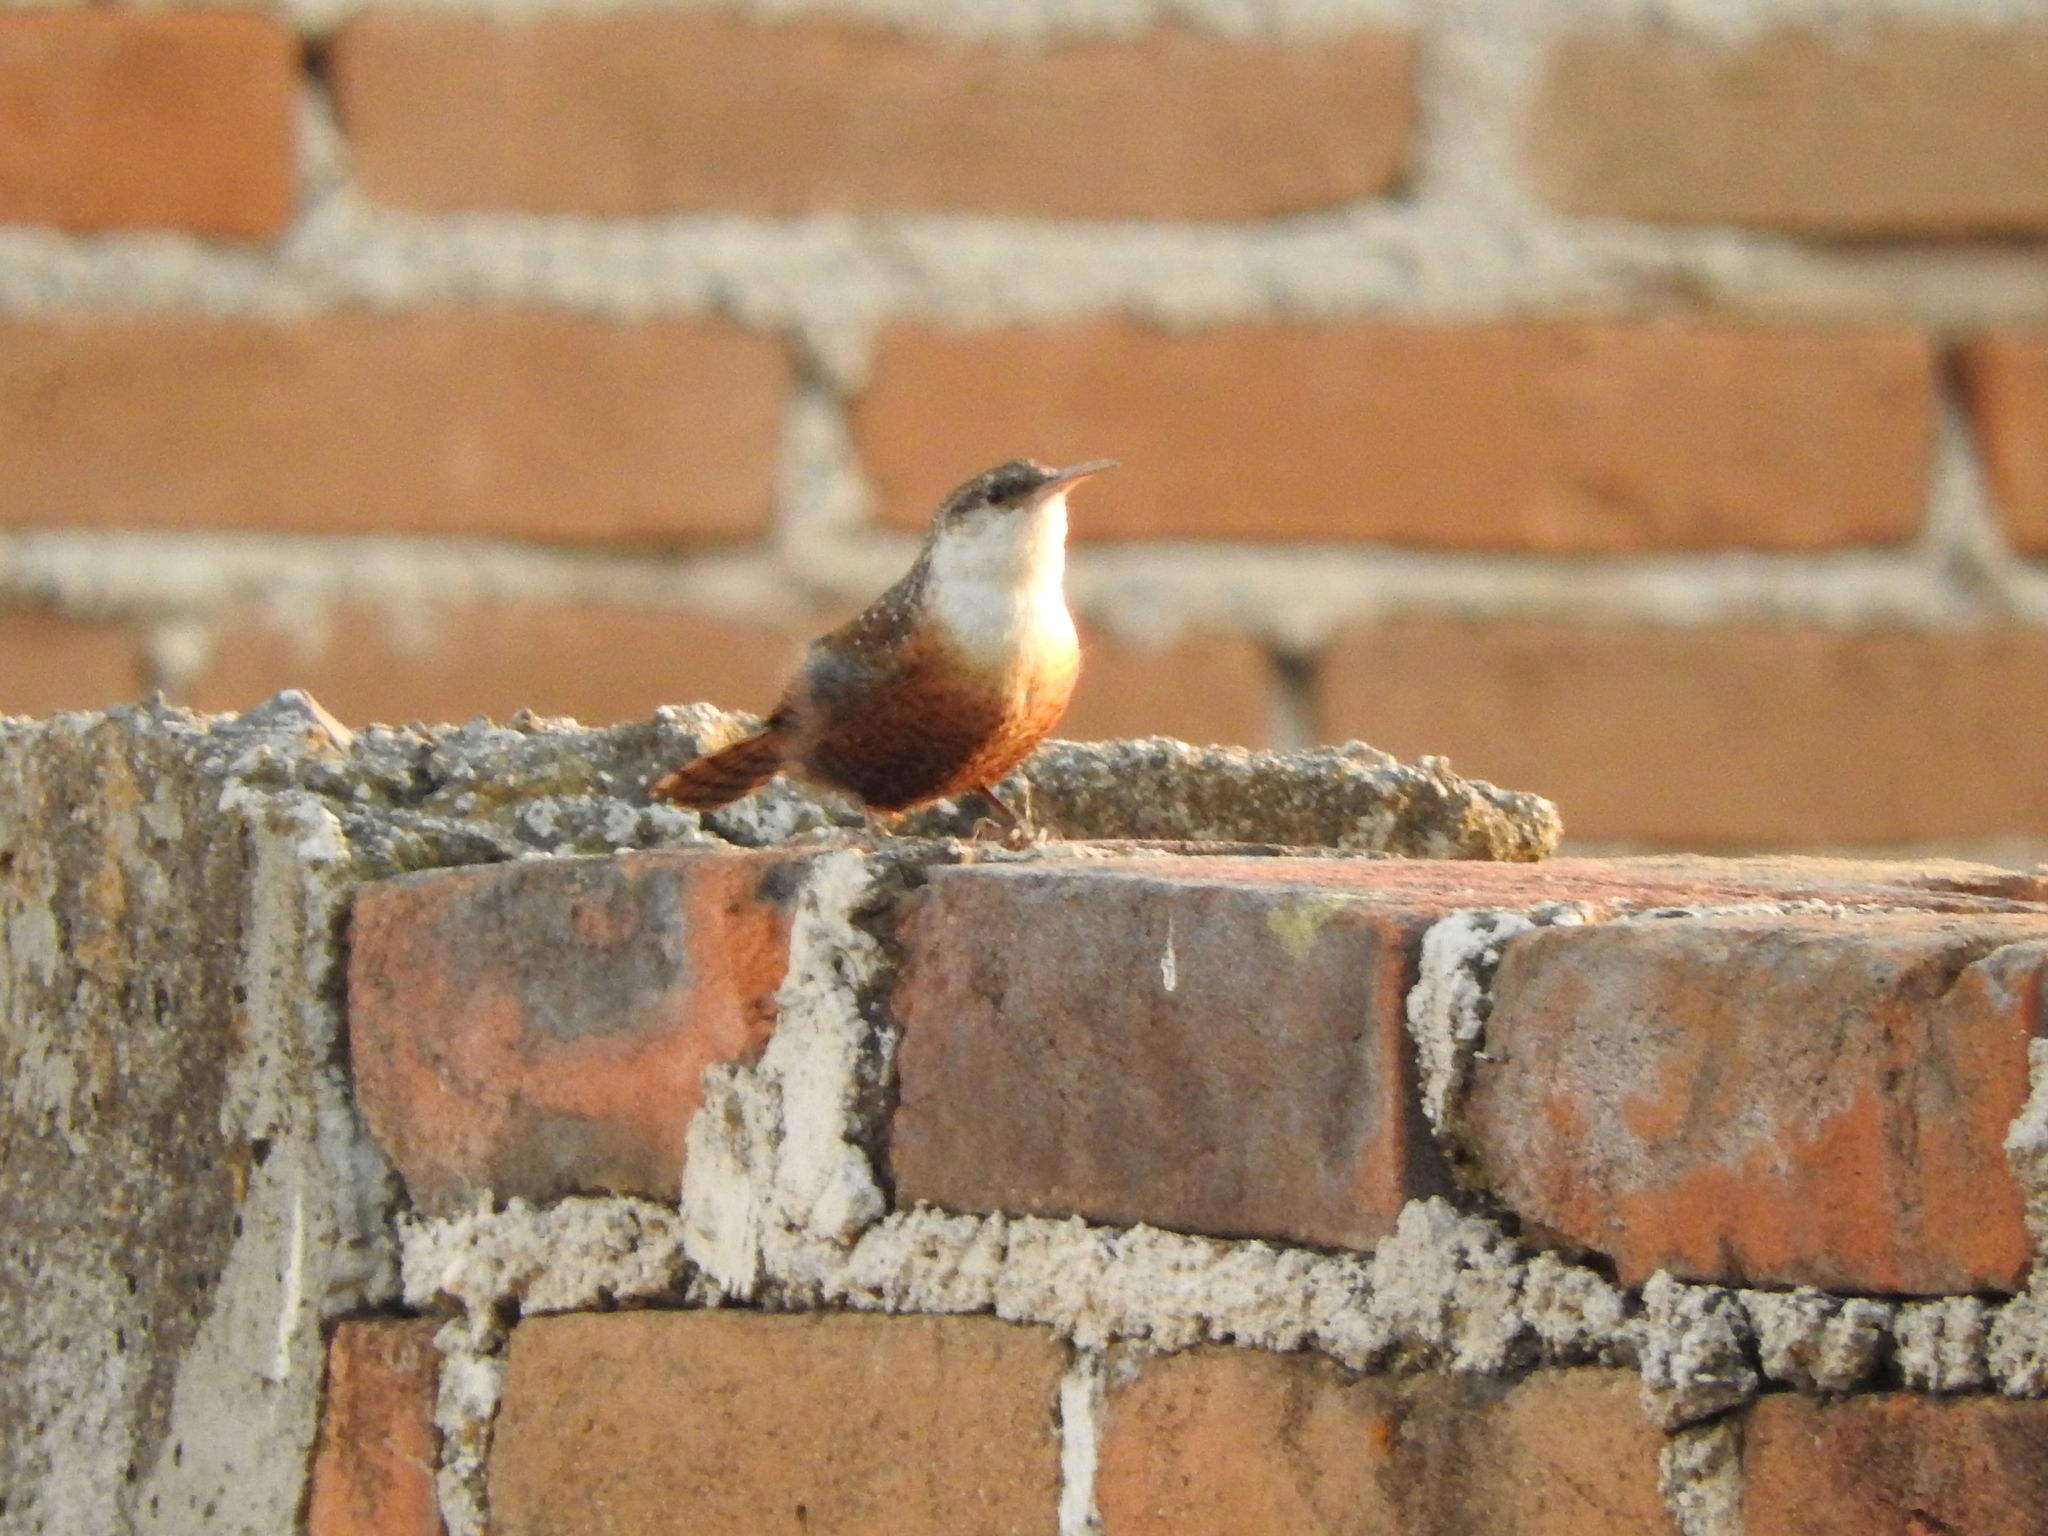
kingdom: Animalia
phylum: Chordata
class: Aves
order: Passeriformes
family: Troglodytidae
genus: Catherpes
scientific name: Catherpes mexicanus
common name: Canyon wren
